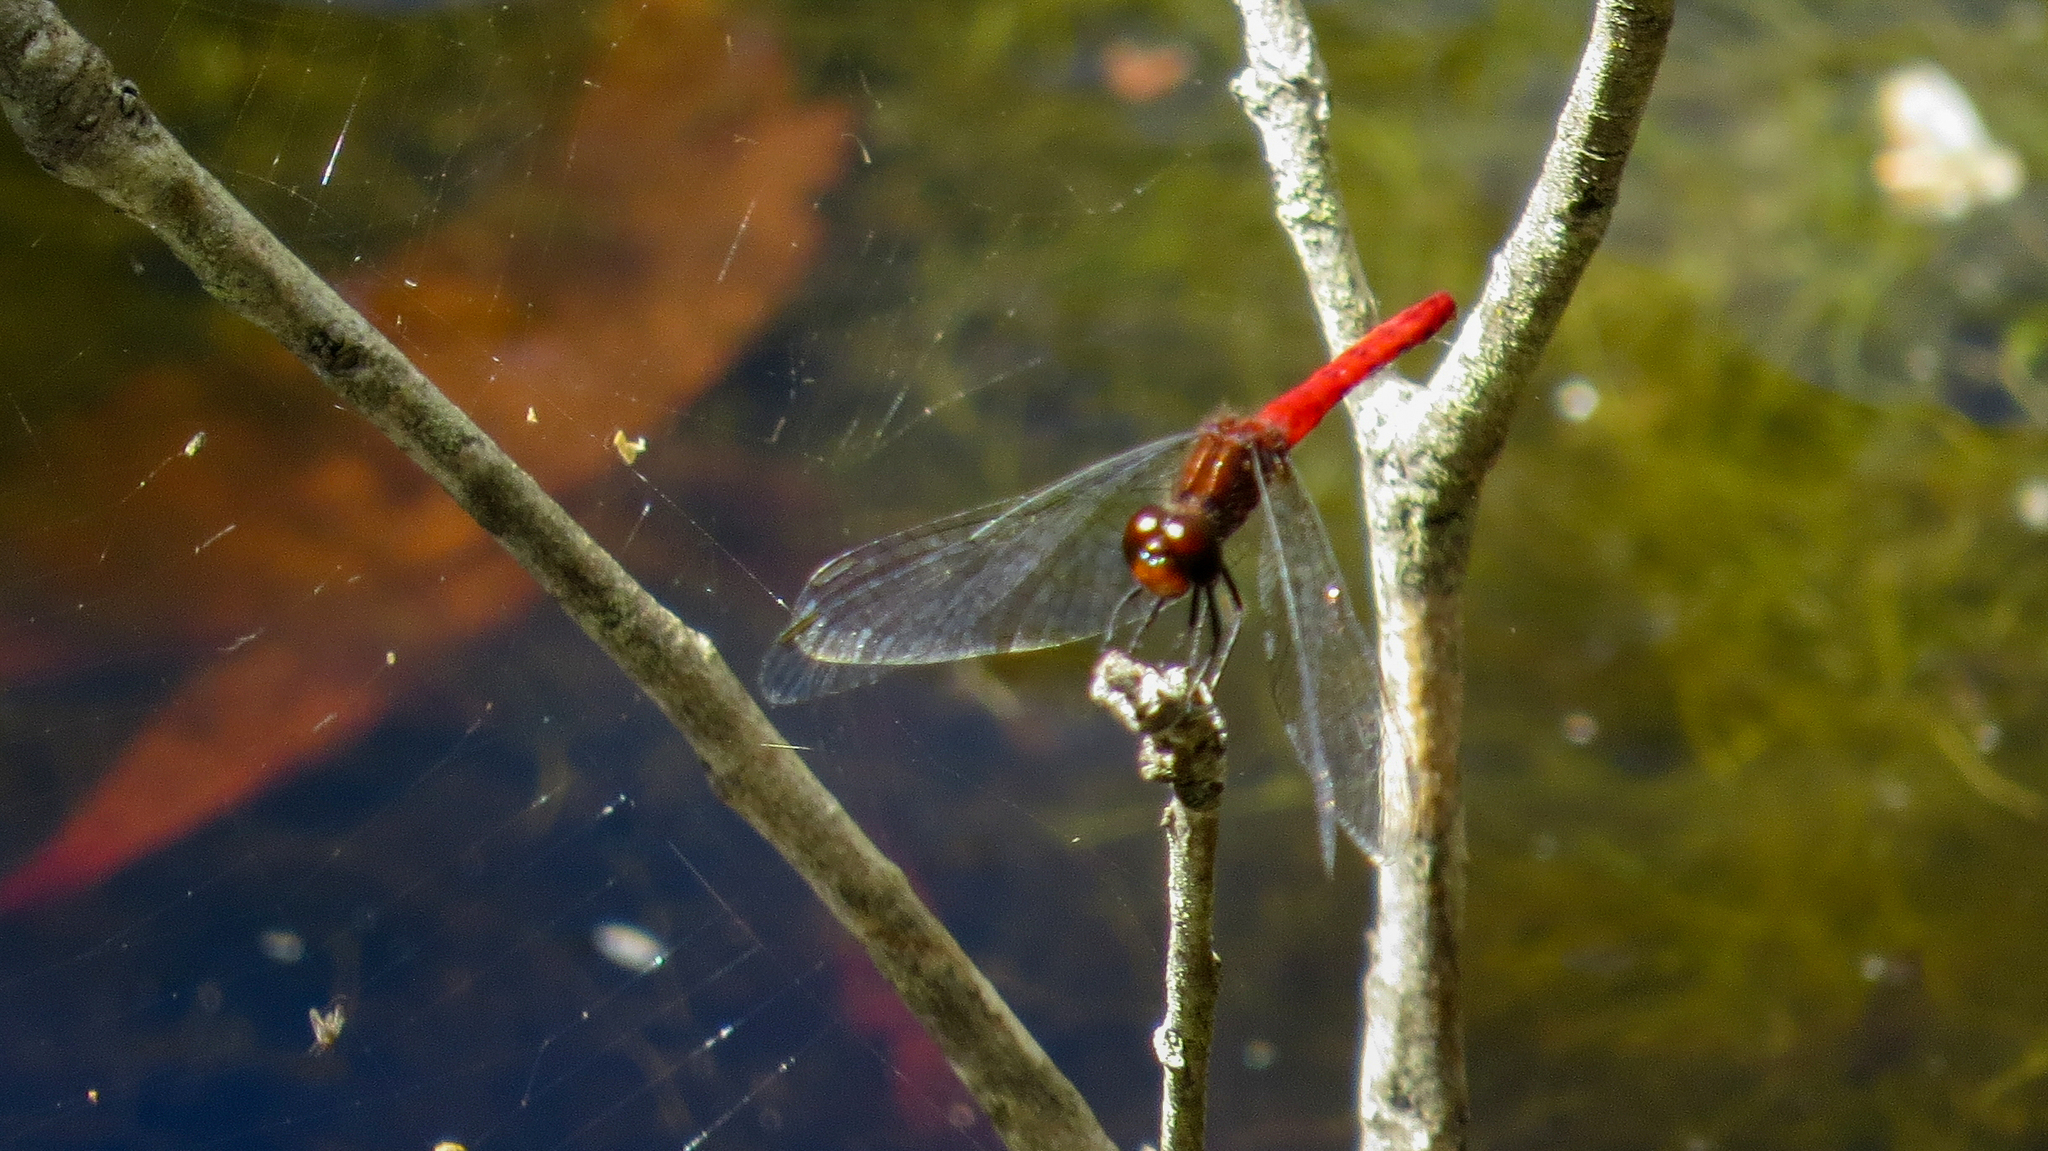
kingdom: Animalia
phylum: Arthropoda
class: Insecta
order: Odonata
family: Libellulidae
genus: Nannodiplax
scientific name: Nannodiplax rubra
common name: Pygmy percher
